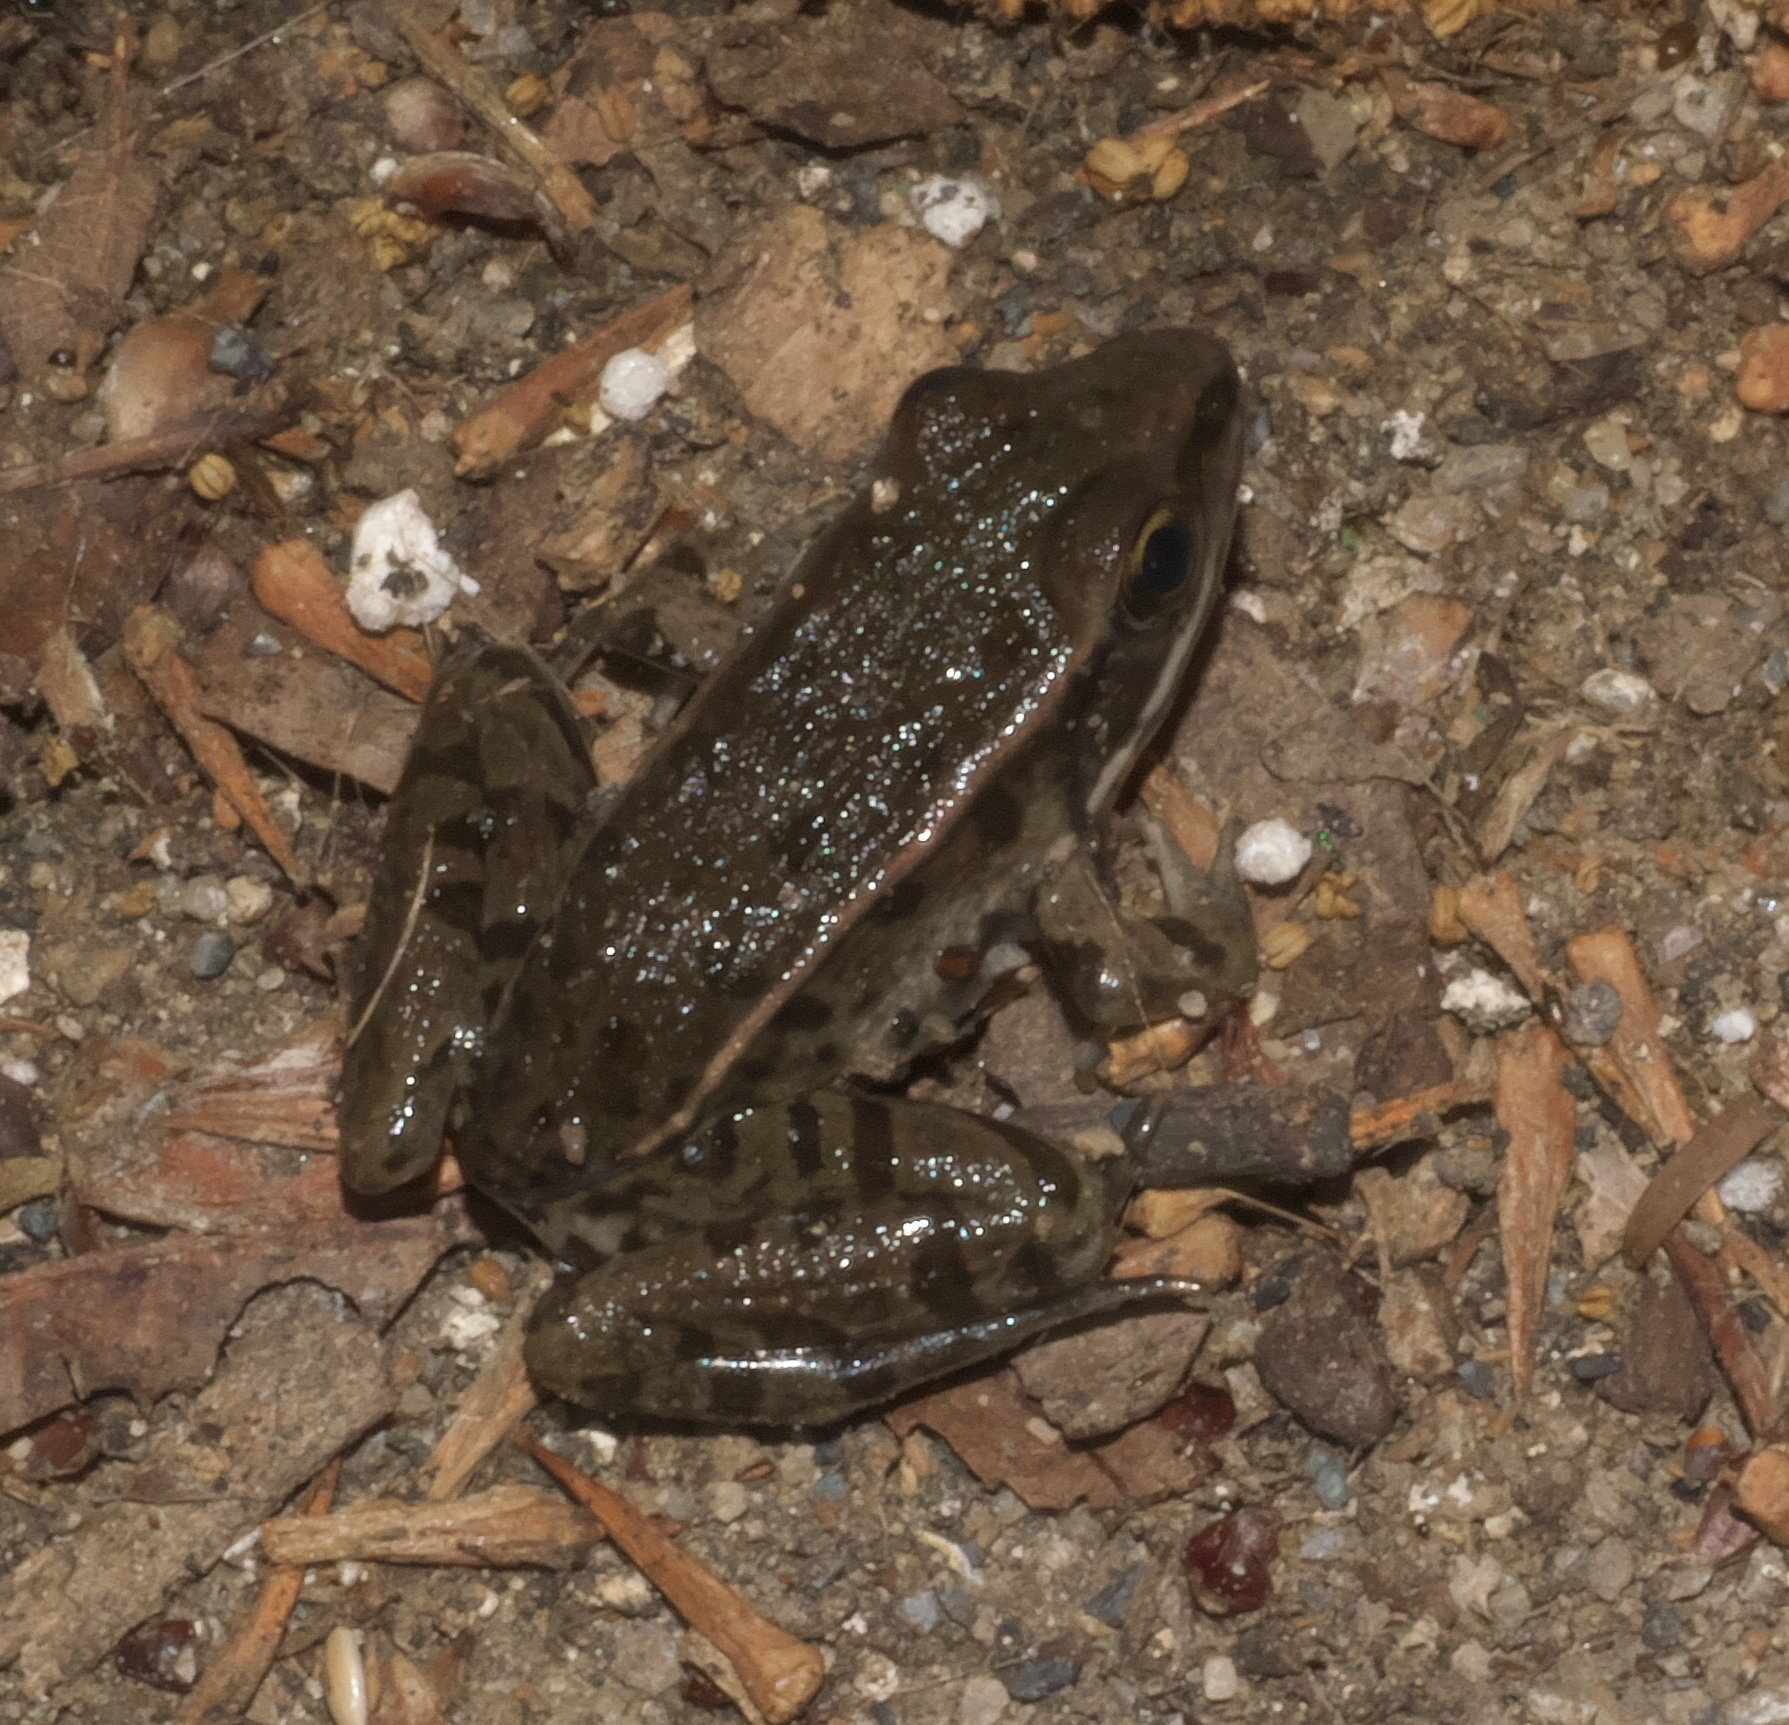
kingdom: Animalia
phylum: Chordata
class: Amphibia
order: Anura
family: Ranidae
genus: Lithobates
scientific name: Lithobates sphenocephalus
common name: Southern leopard frog
